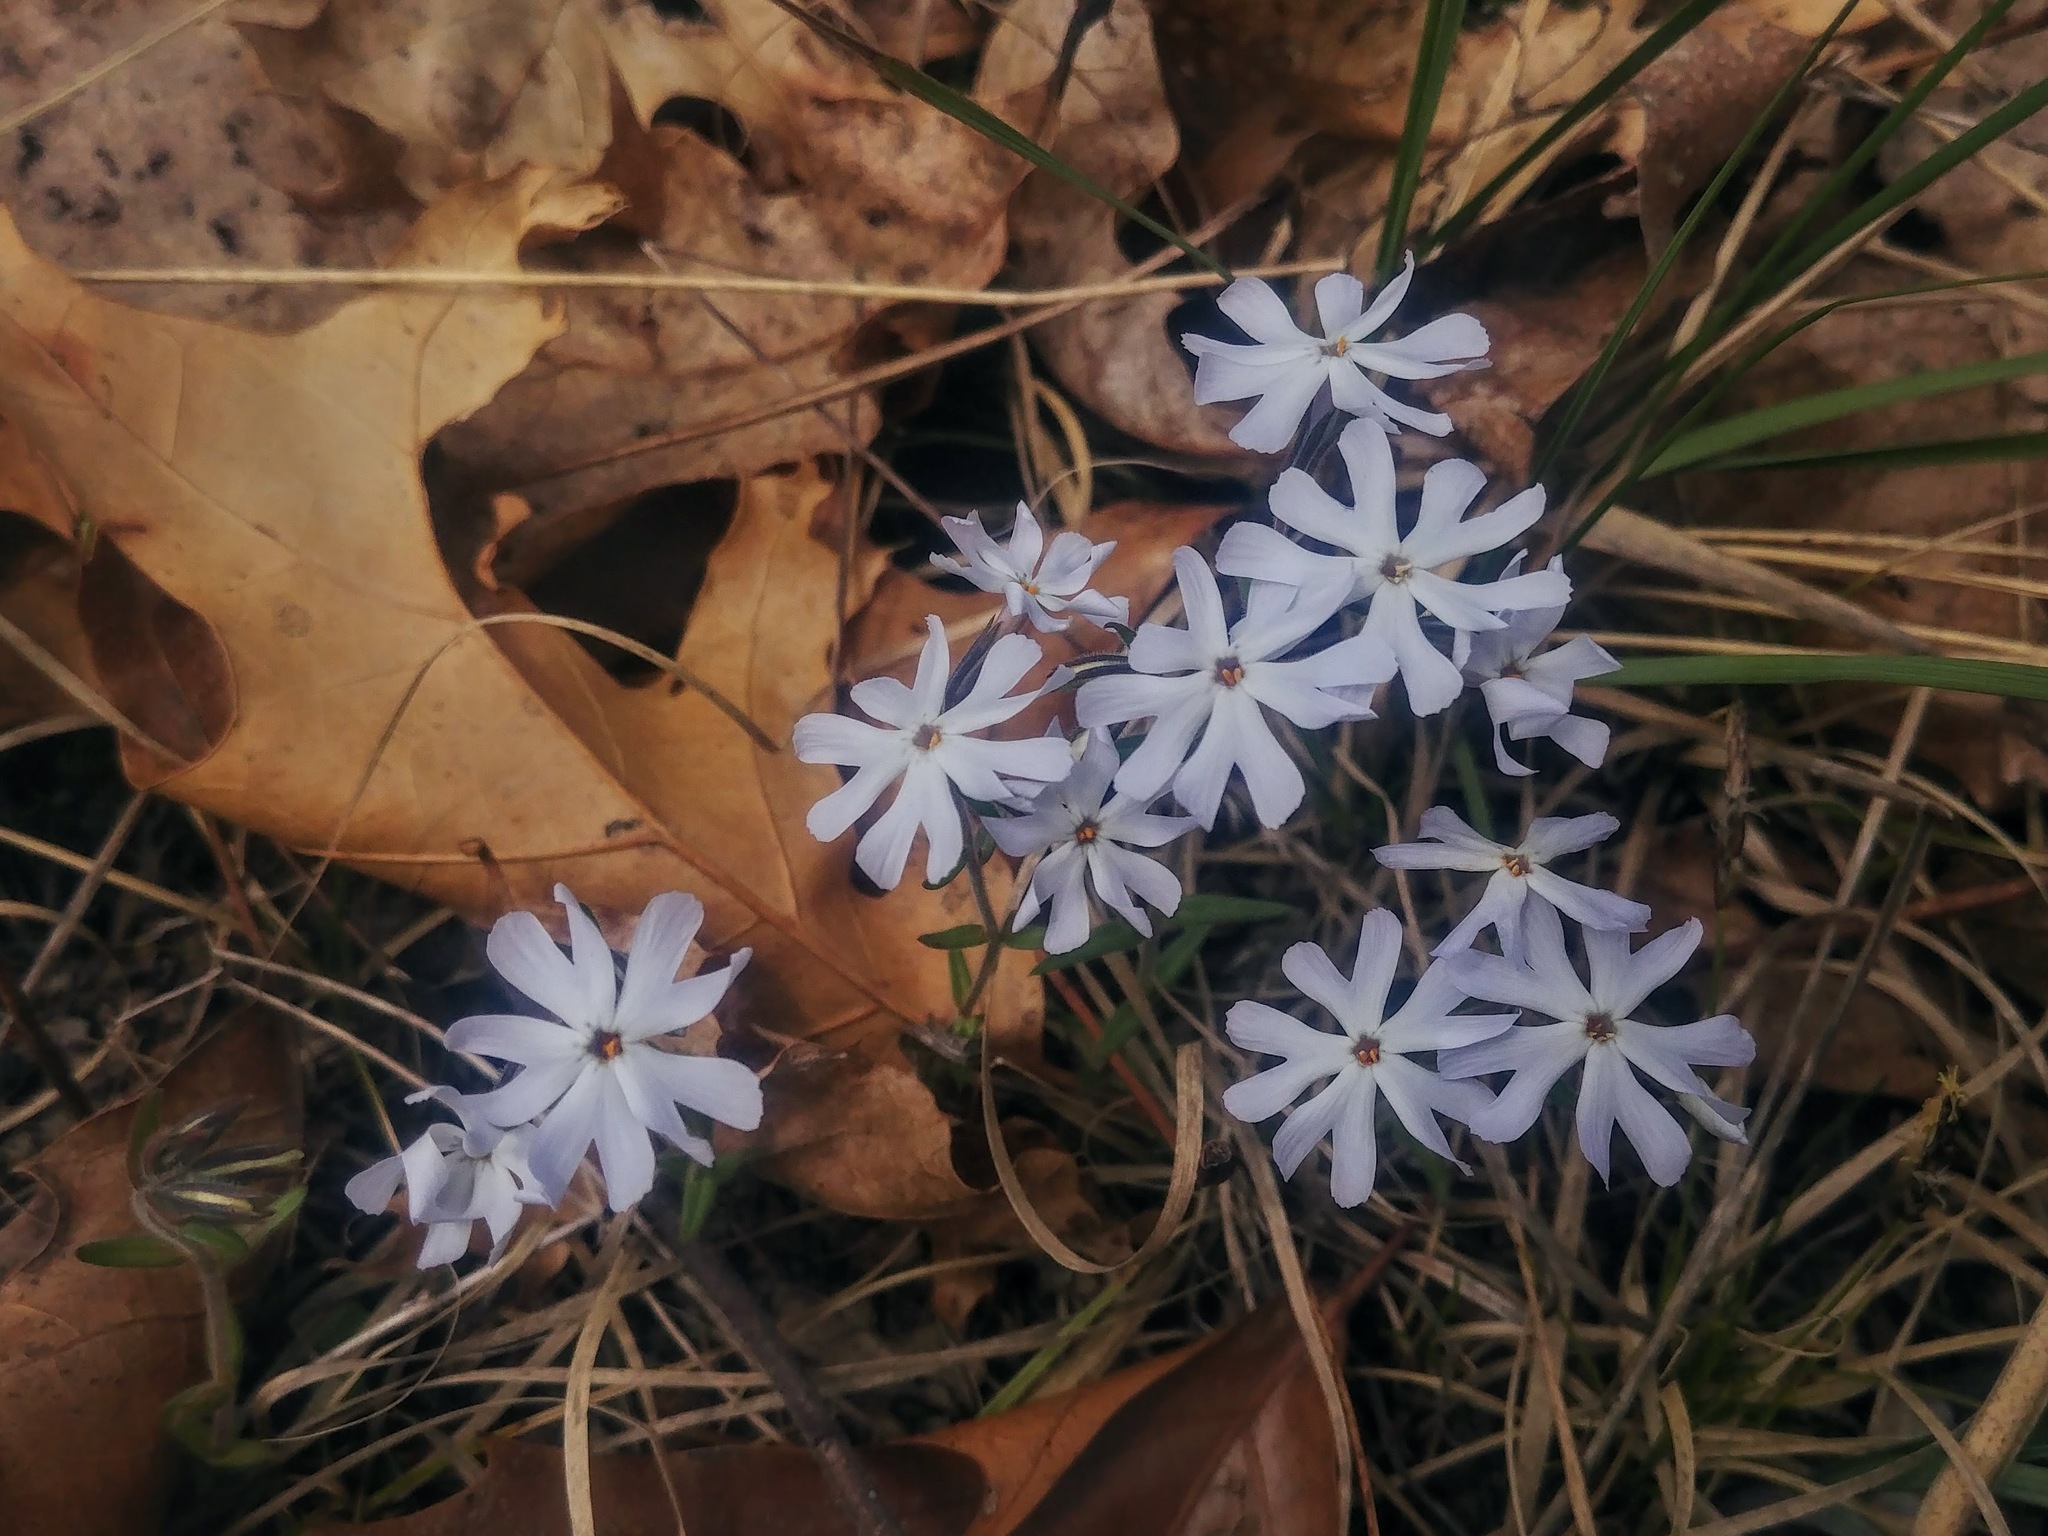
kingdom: Plantae
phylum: Tracheophyta
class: Magnoliopsida
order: Ericales
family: Polemoniaceae
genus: Phlox
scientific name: Phlox bifida
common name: Sand phlox
